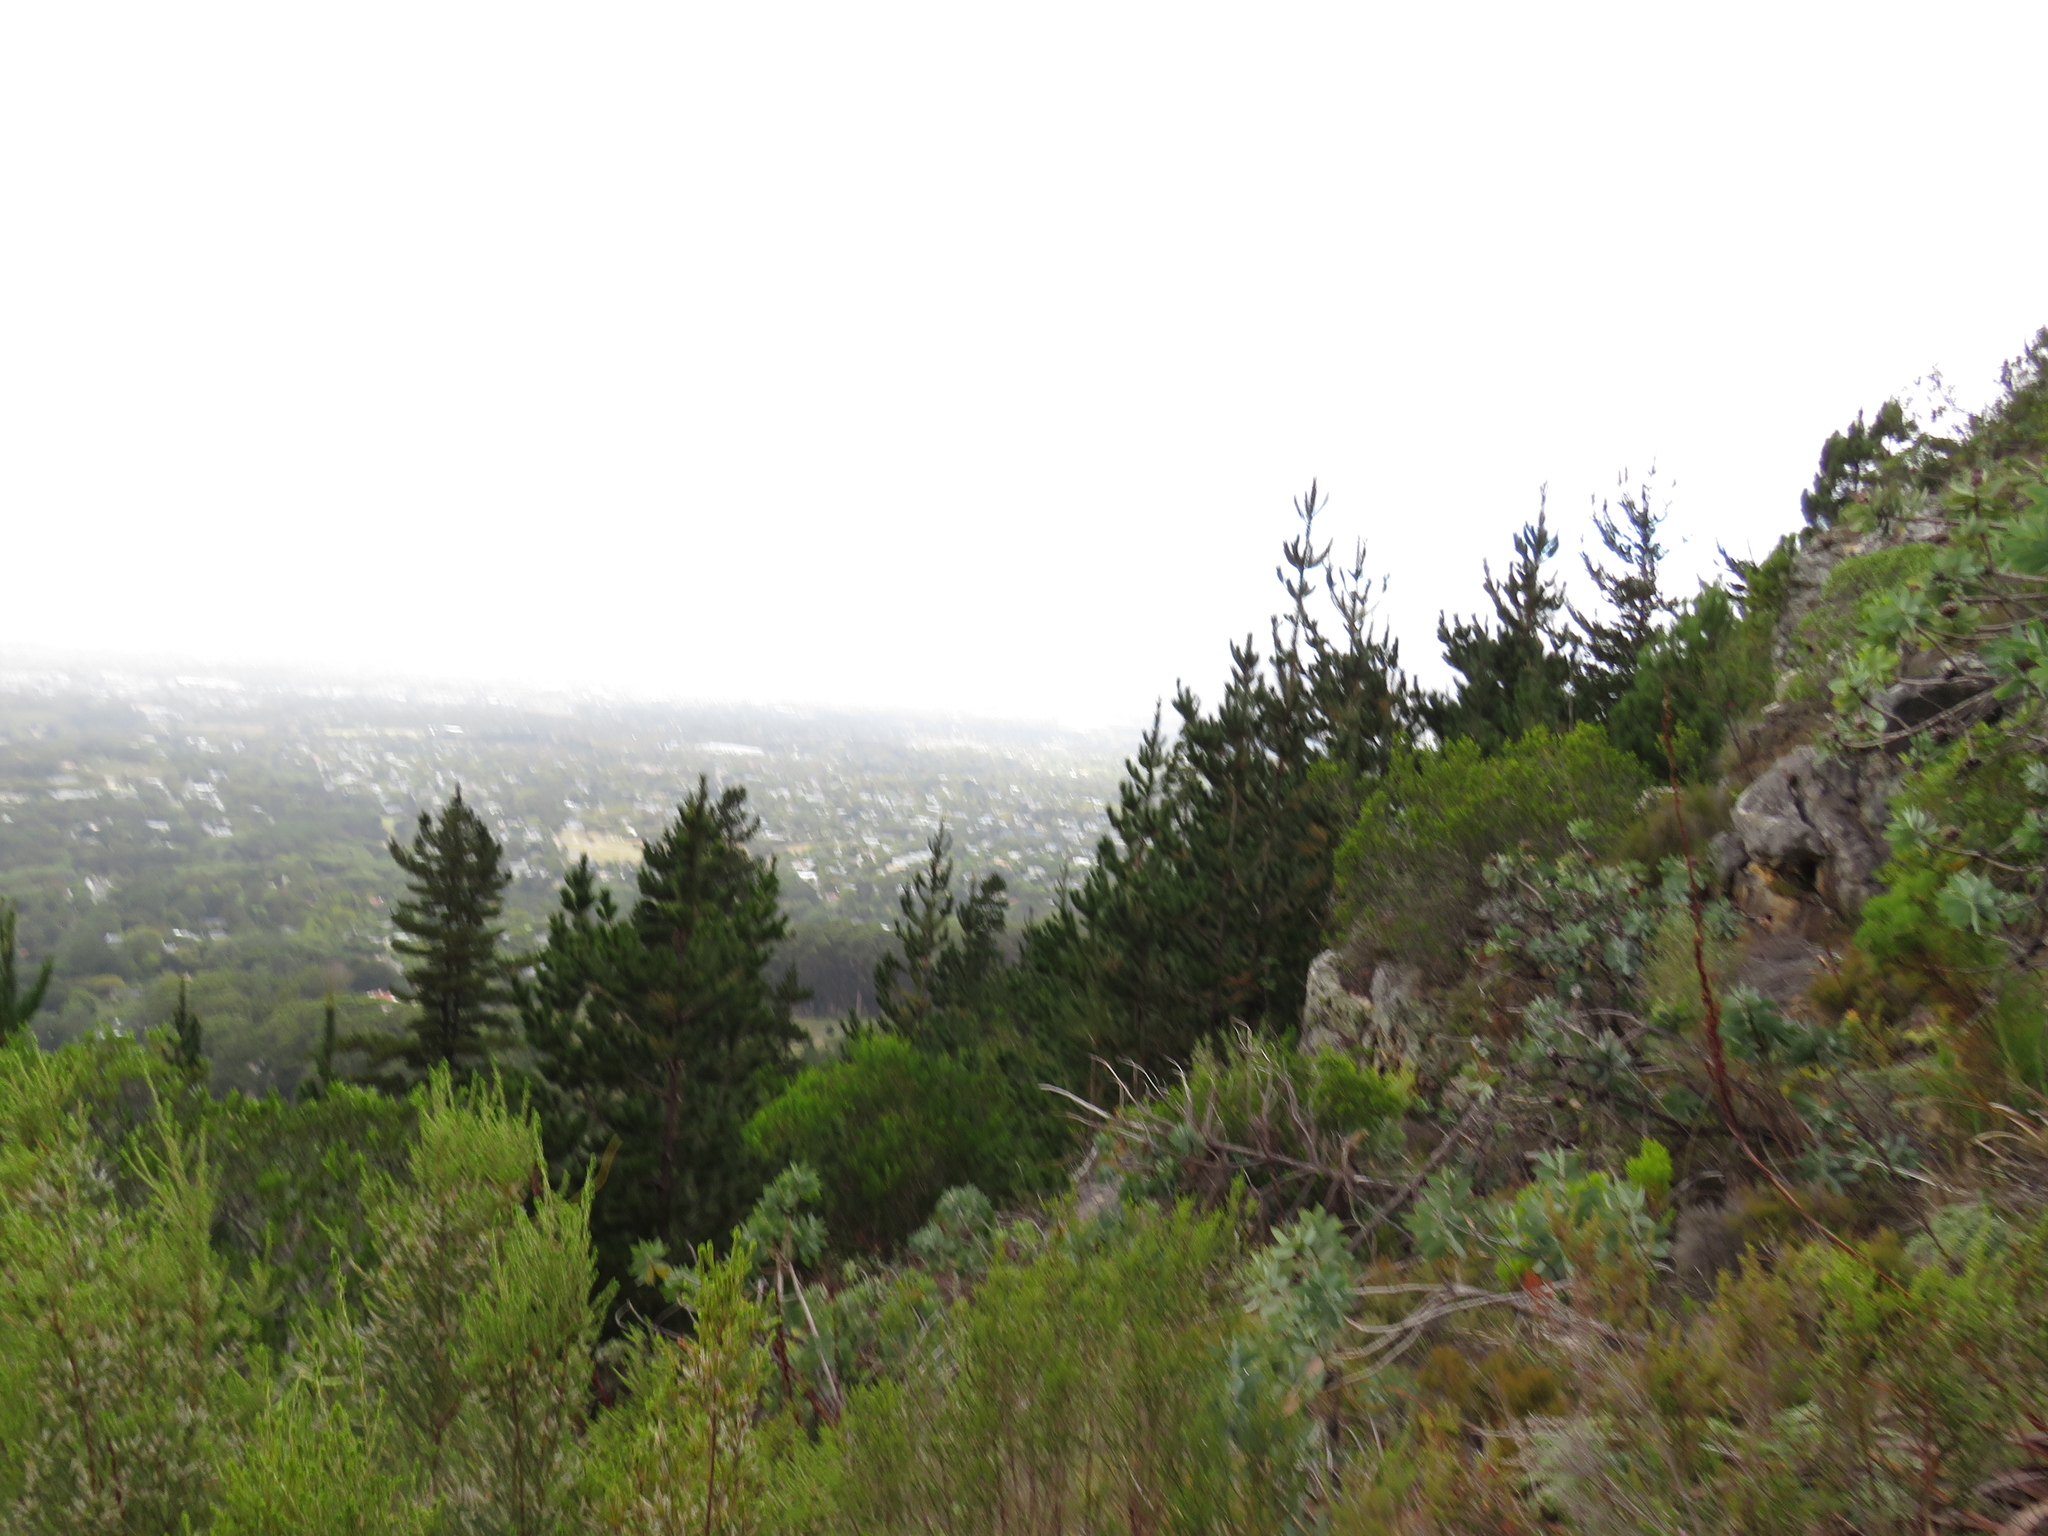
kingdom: Plantae
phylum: Tracheophyta
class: Pinopsida
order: Pinales
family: Pinaceae
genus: Pinus
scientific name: Pinus radiata
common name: Monterey pine
